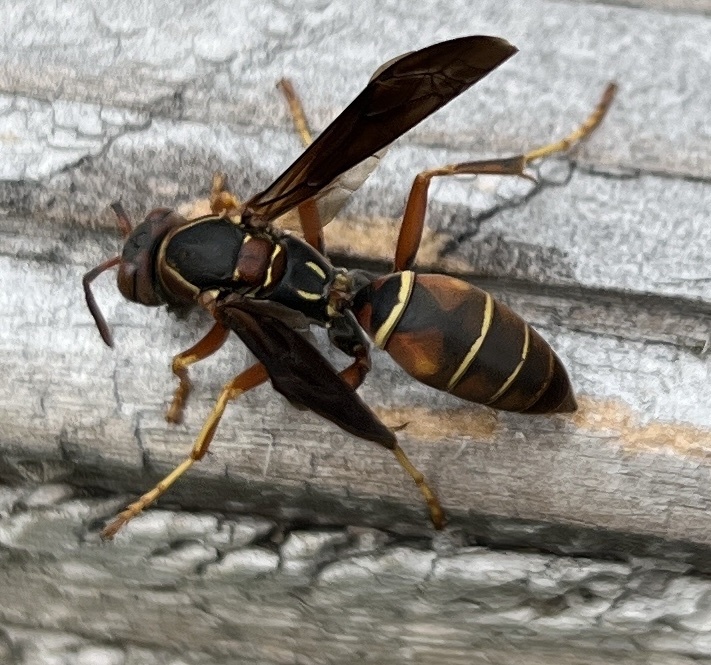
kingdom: Animalia
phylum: Arthropoda
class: Insecta
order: Hymenoptera
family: Eumenidae
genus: Polistes
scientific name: Polistes fuscatus
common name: Dark paper wasp
